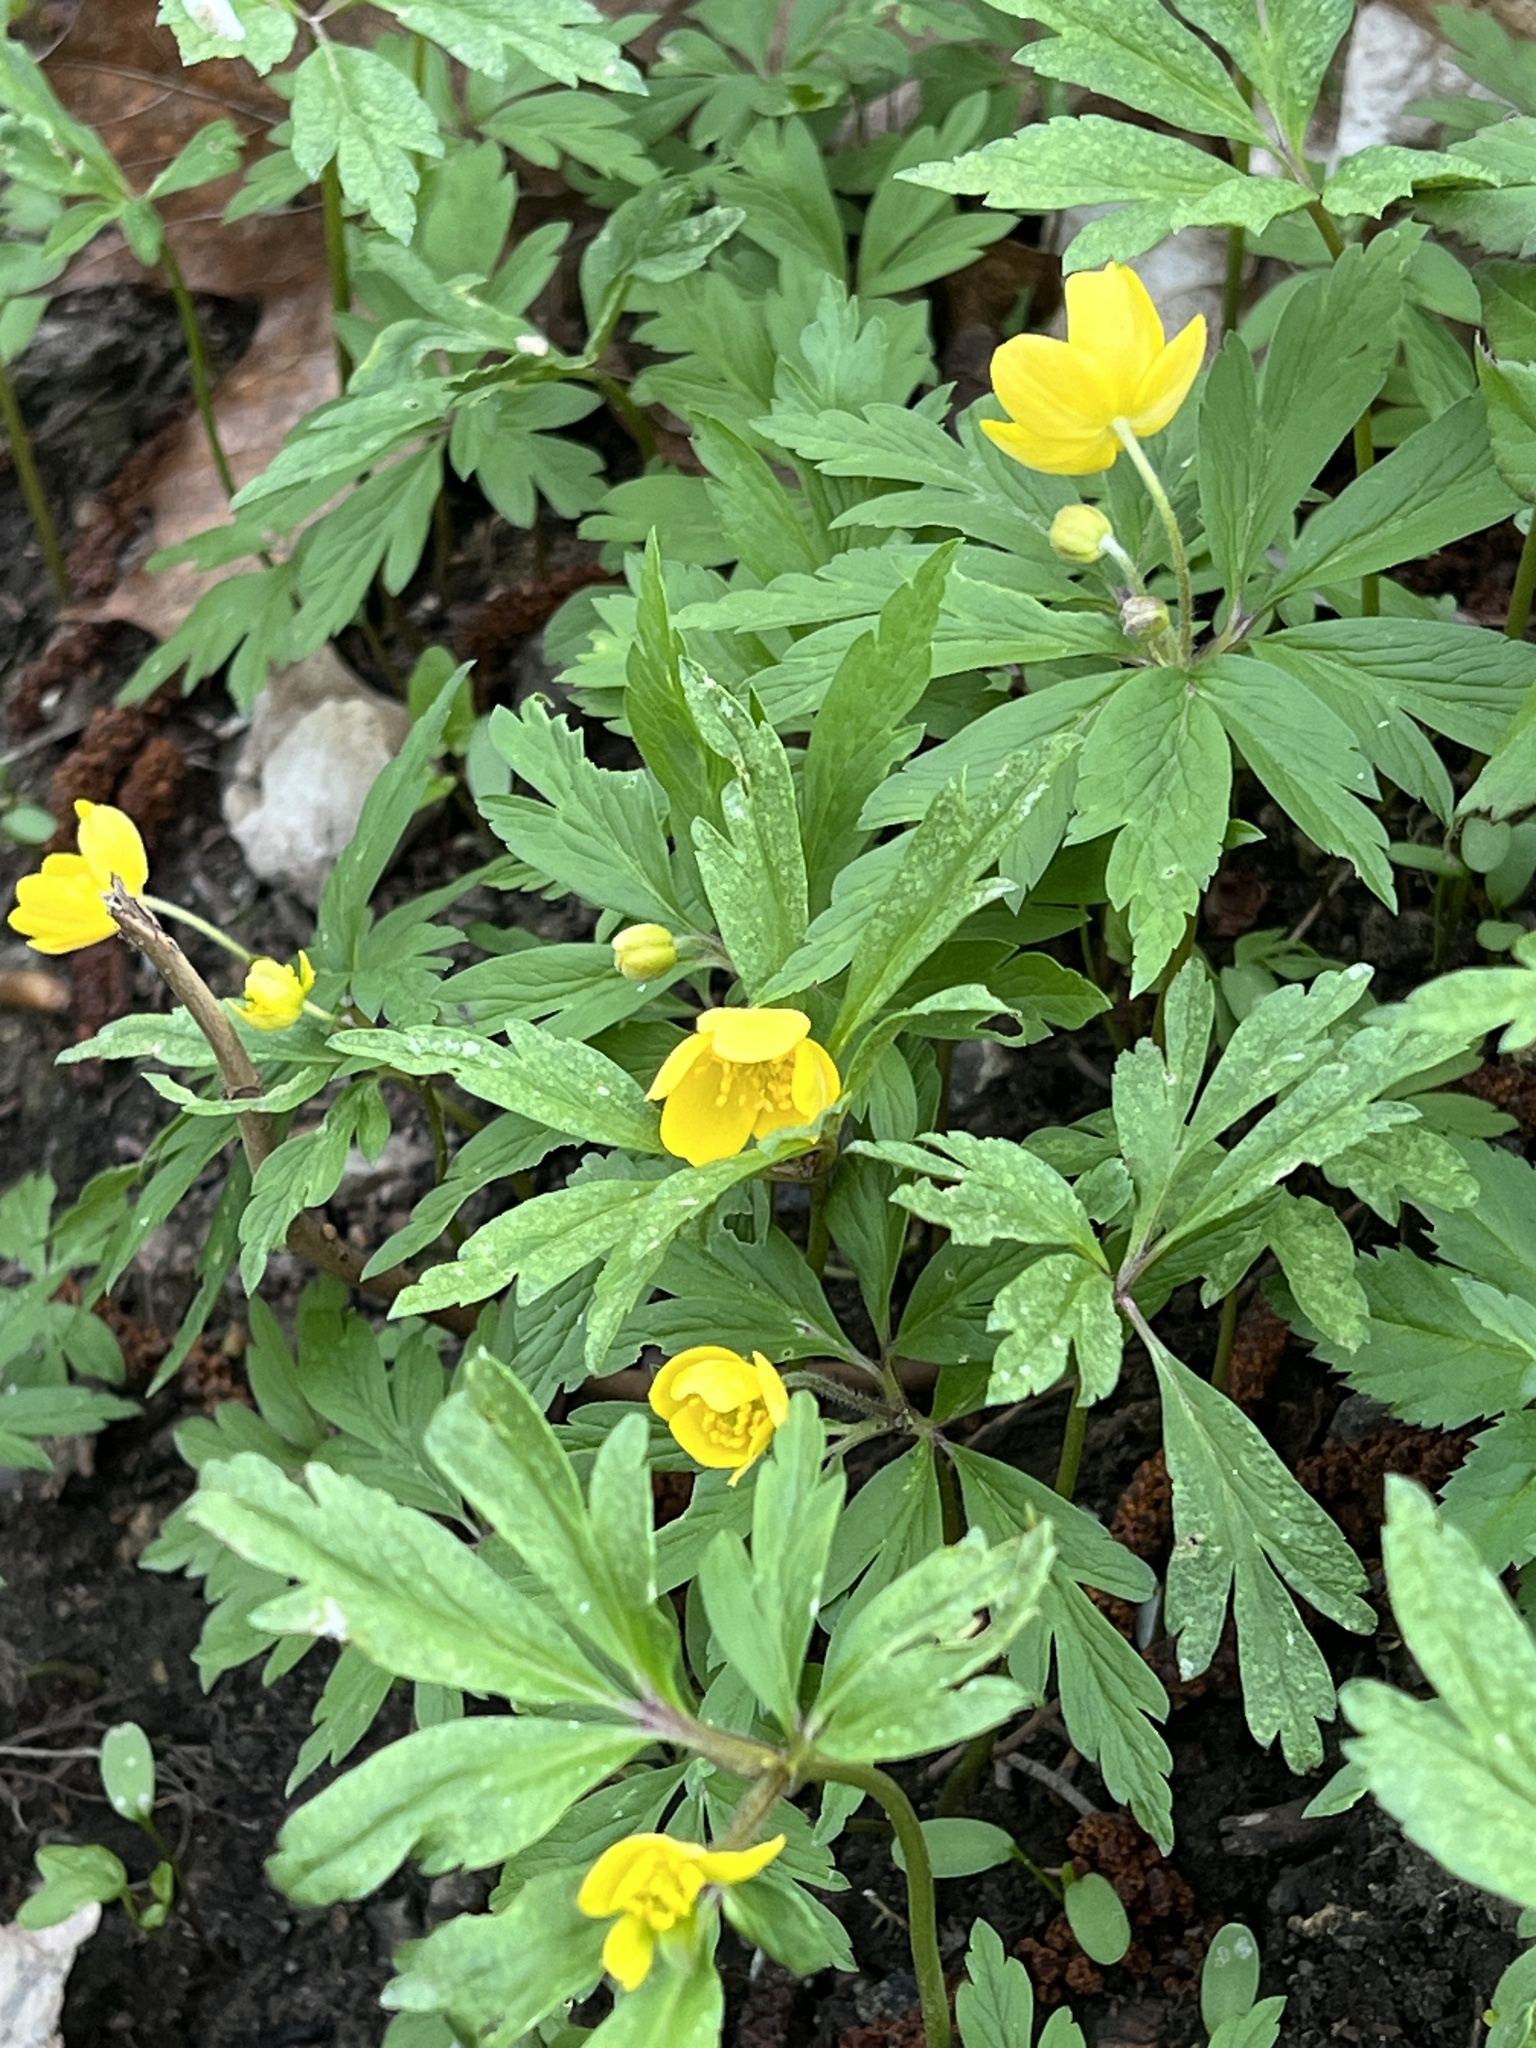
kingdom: Plantae
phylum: Tracheophyta
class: Magnoliopsida
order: Ranunculales
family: Ranunculaceae
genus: Anemone
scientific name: Anemone ranunculoides
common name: Yellow anemone
